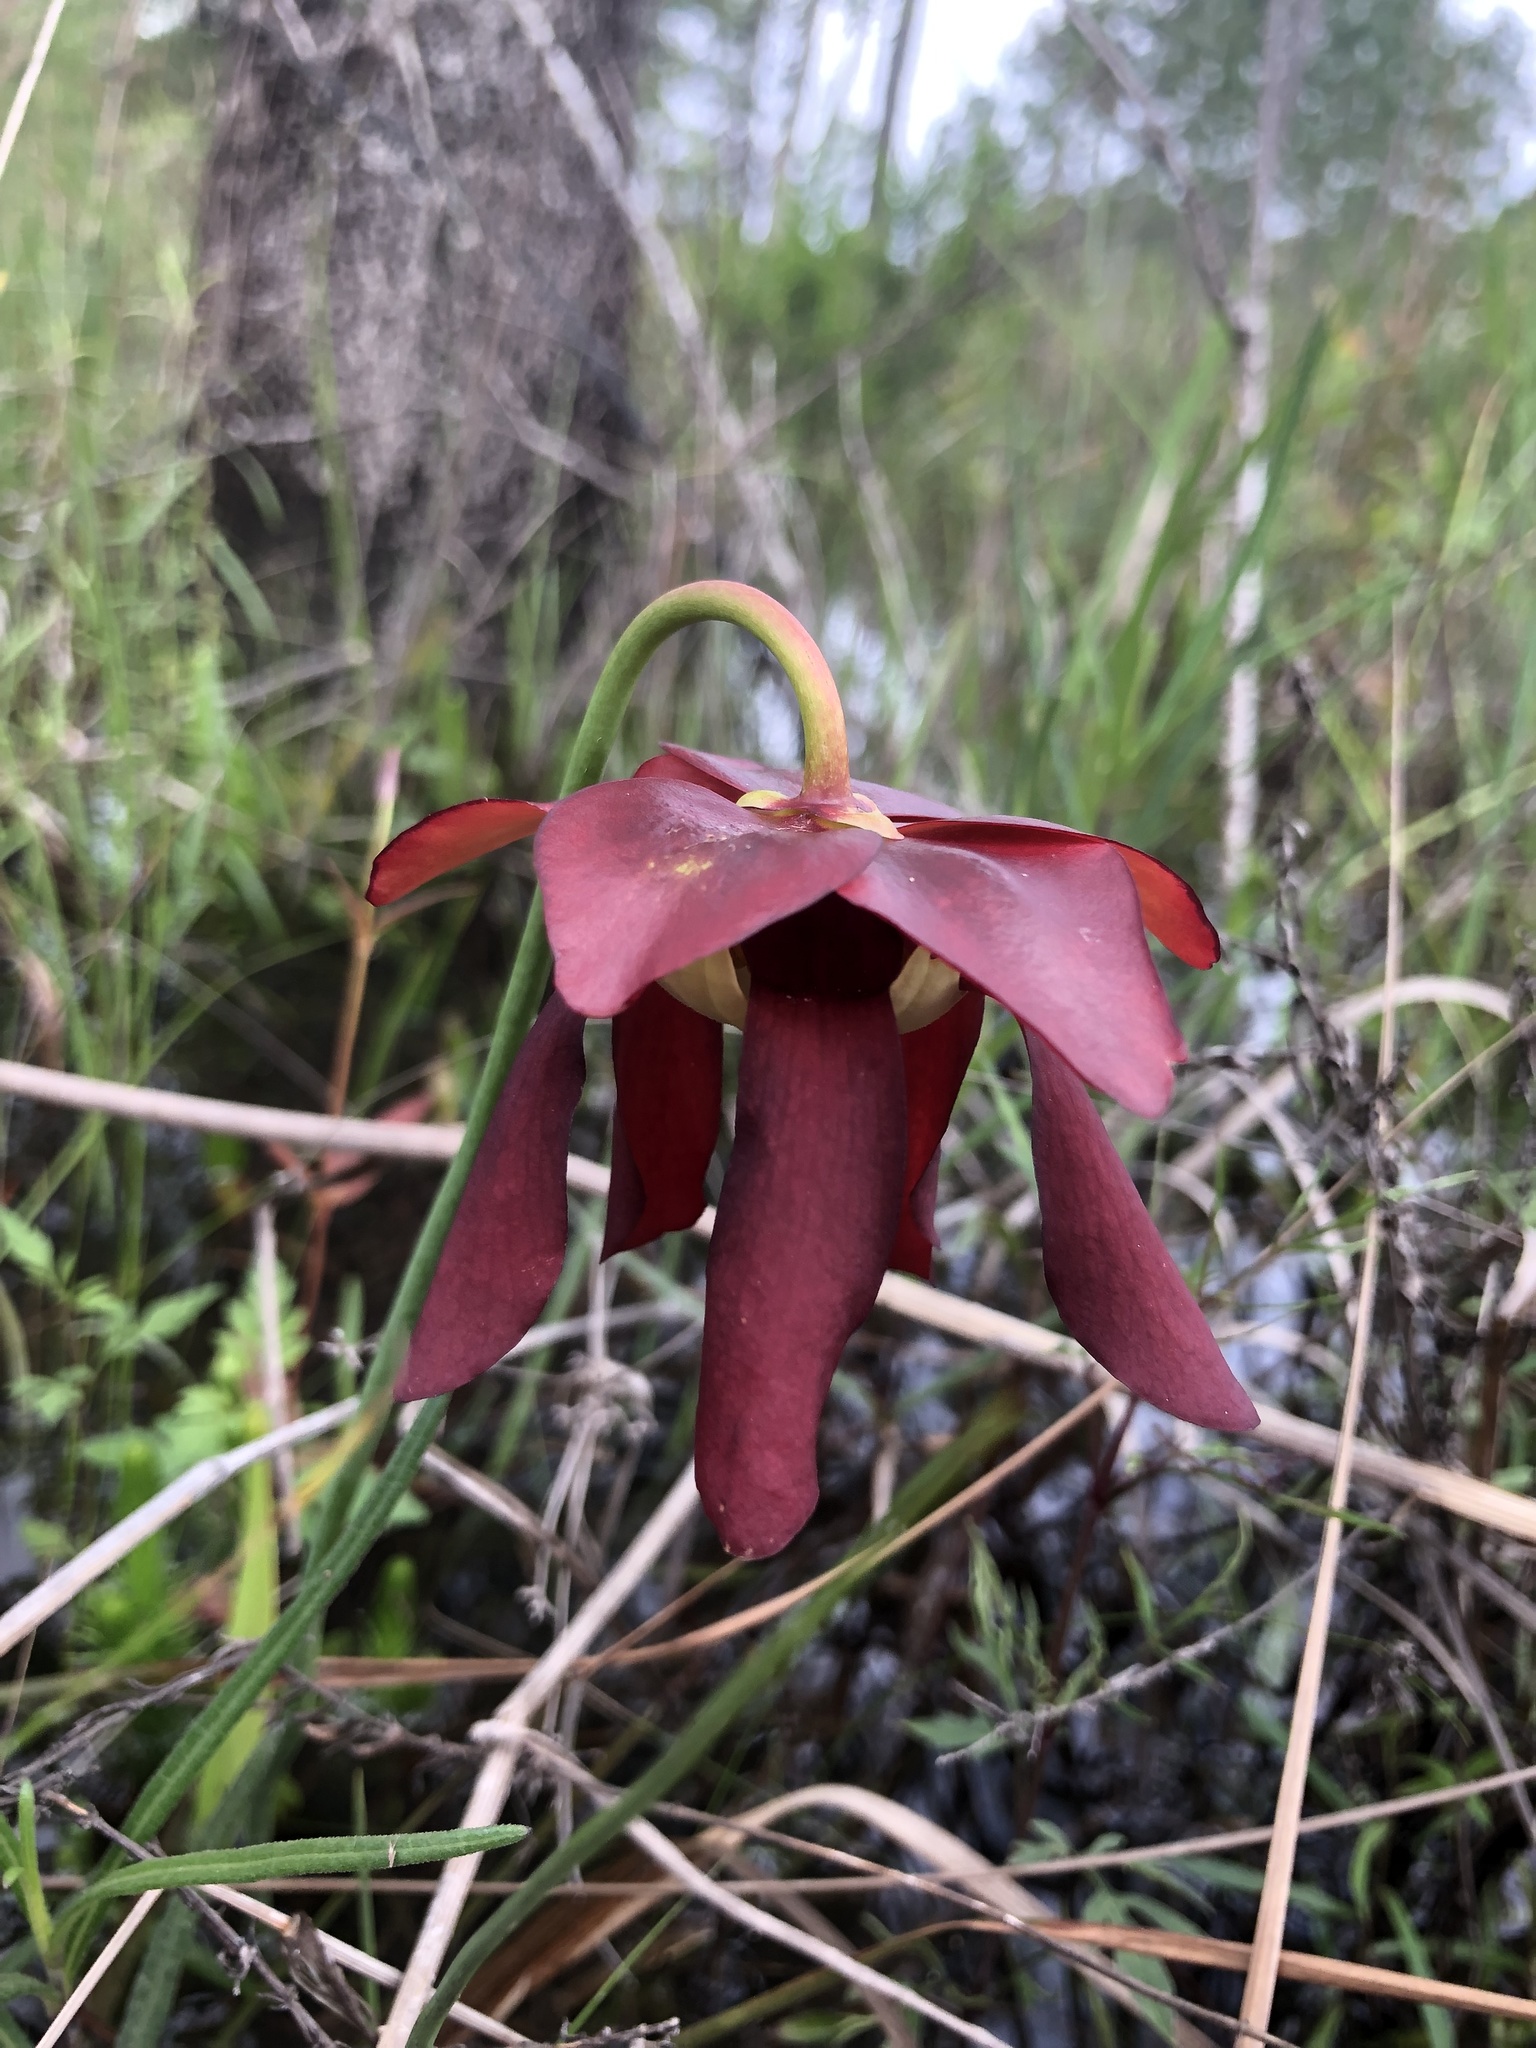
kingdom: Plantae
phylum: Tracheophyta
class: Magnoliopsida
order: Ericales
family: Sarraceniaceae
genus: Sarracenia
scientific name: Sarracenia psittacina
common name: Parrot pitcherplant
